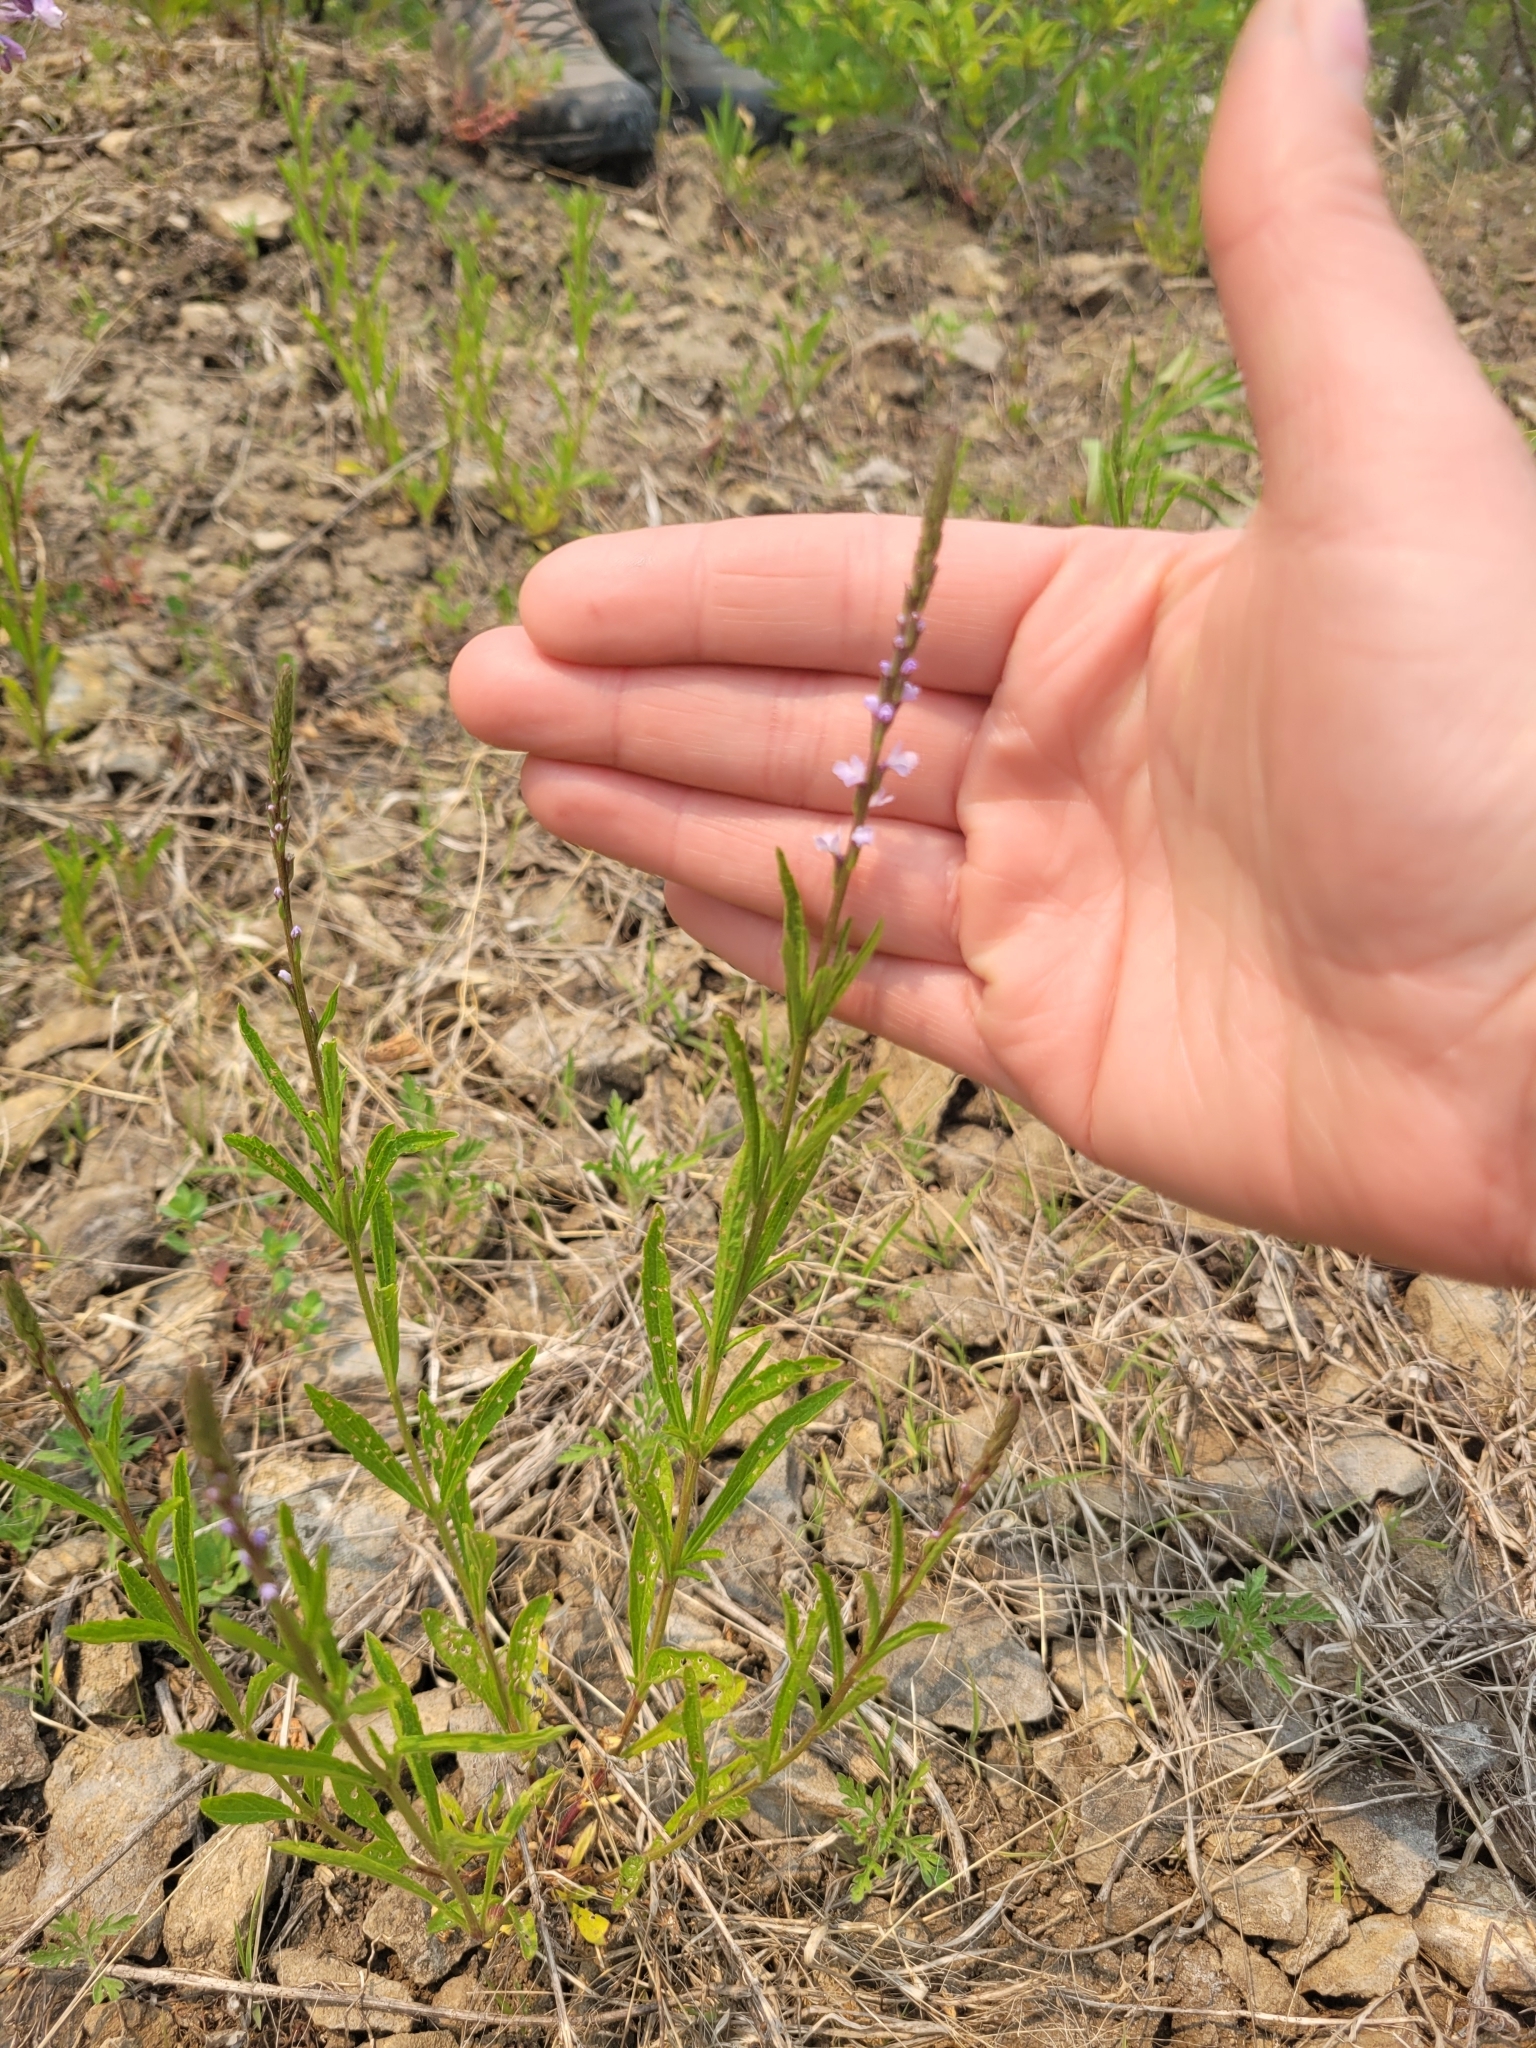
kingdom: Plantae
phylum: Tracheophyta
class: Magnoliopsida
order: Lamiales
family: Verbenaceae
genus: Verbena
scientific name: Verbena simplex
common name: Narrow-leaf vervain
